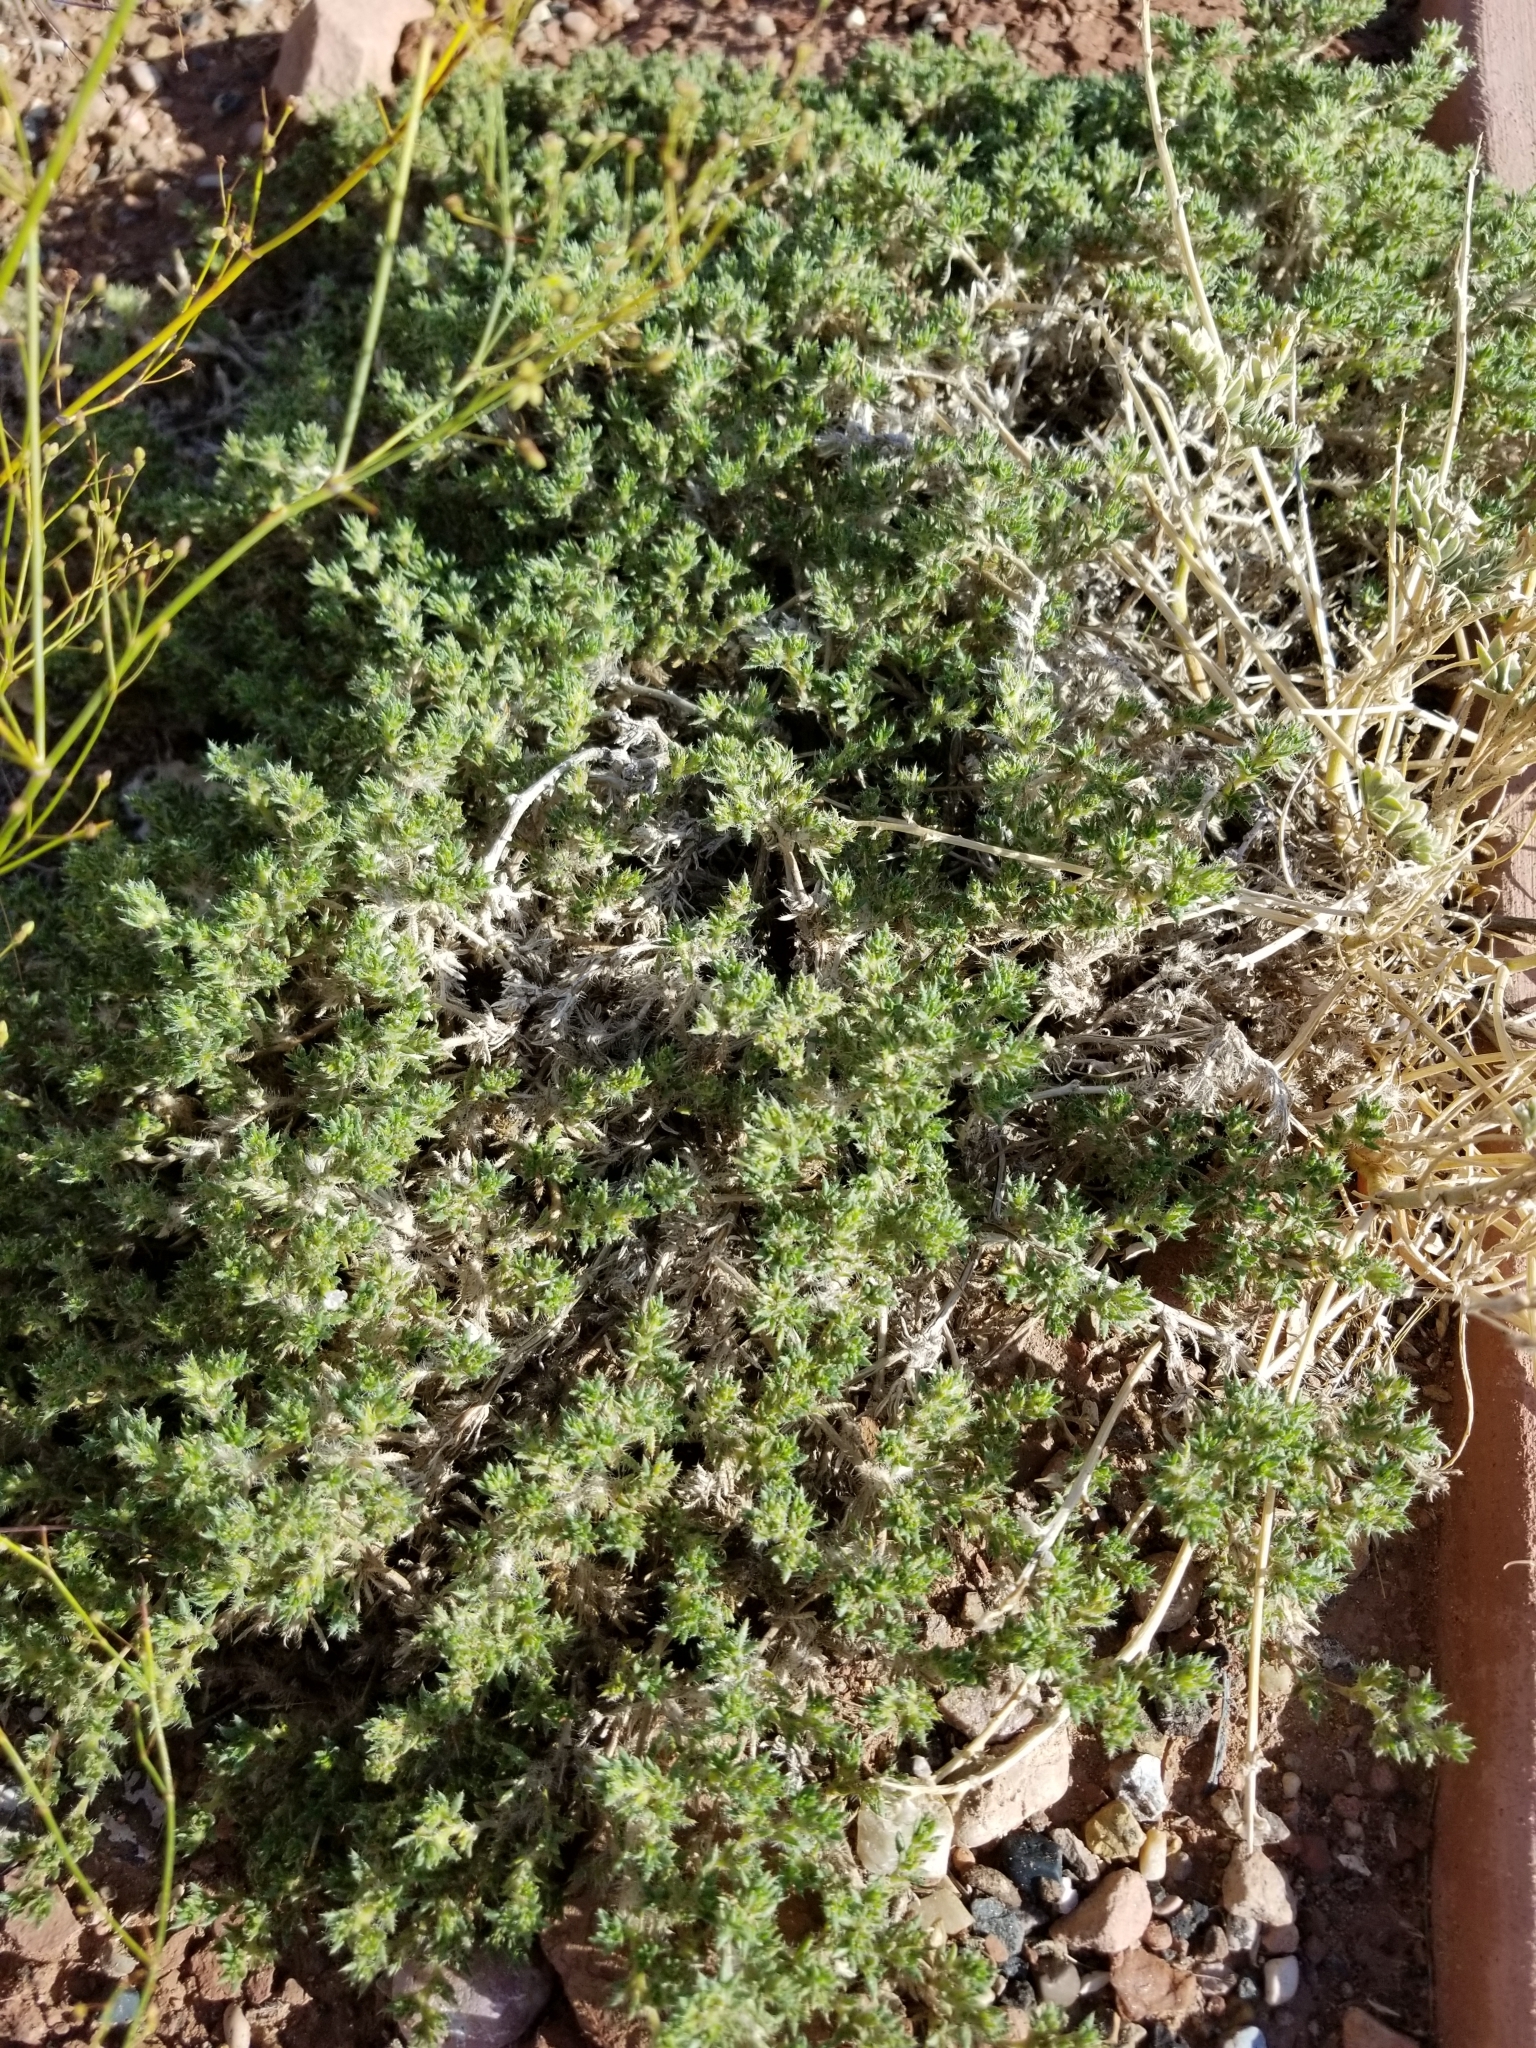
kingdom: Plantae
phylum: Tracheophyta
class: Magnoliopsida
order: Boraginales
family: Ehretiaceae
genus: Tiquilia
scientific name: Tiquilia latior
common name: Matted tiquilia
